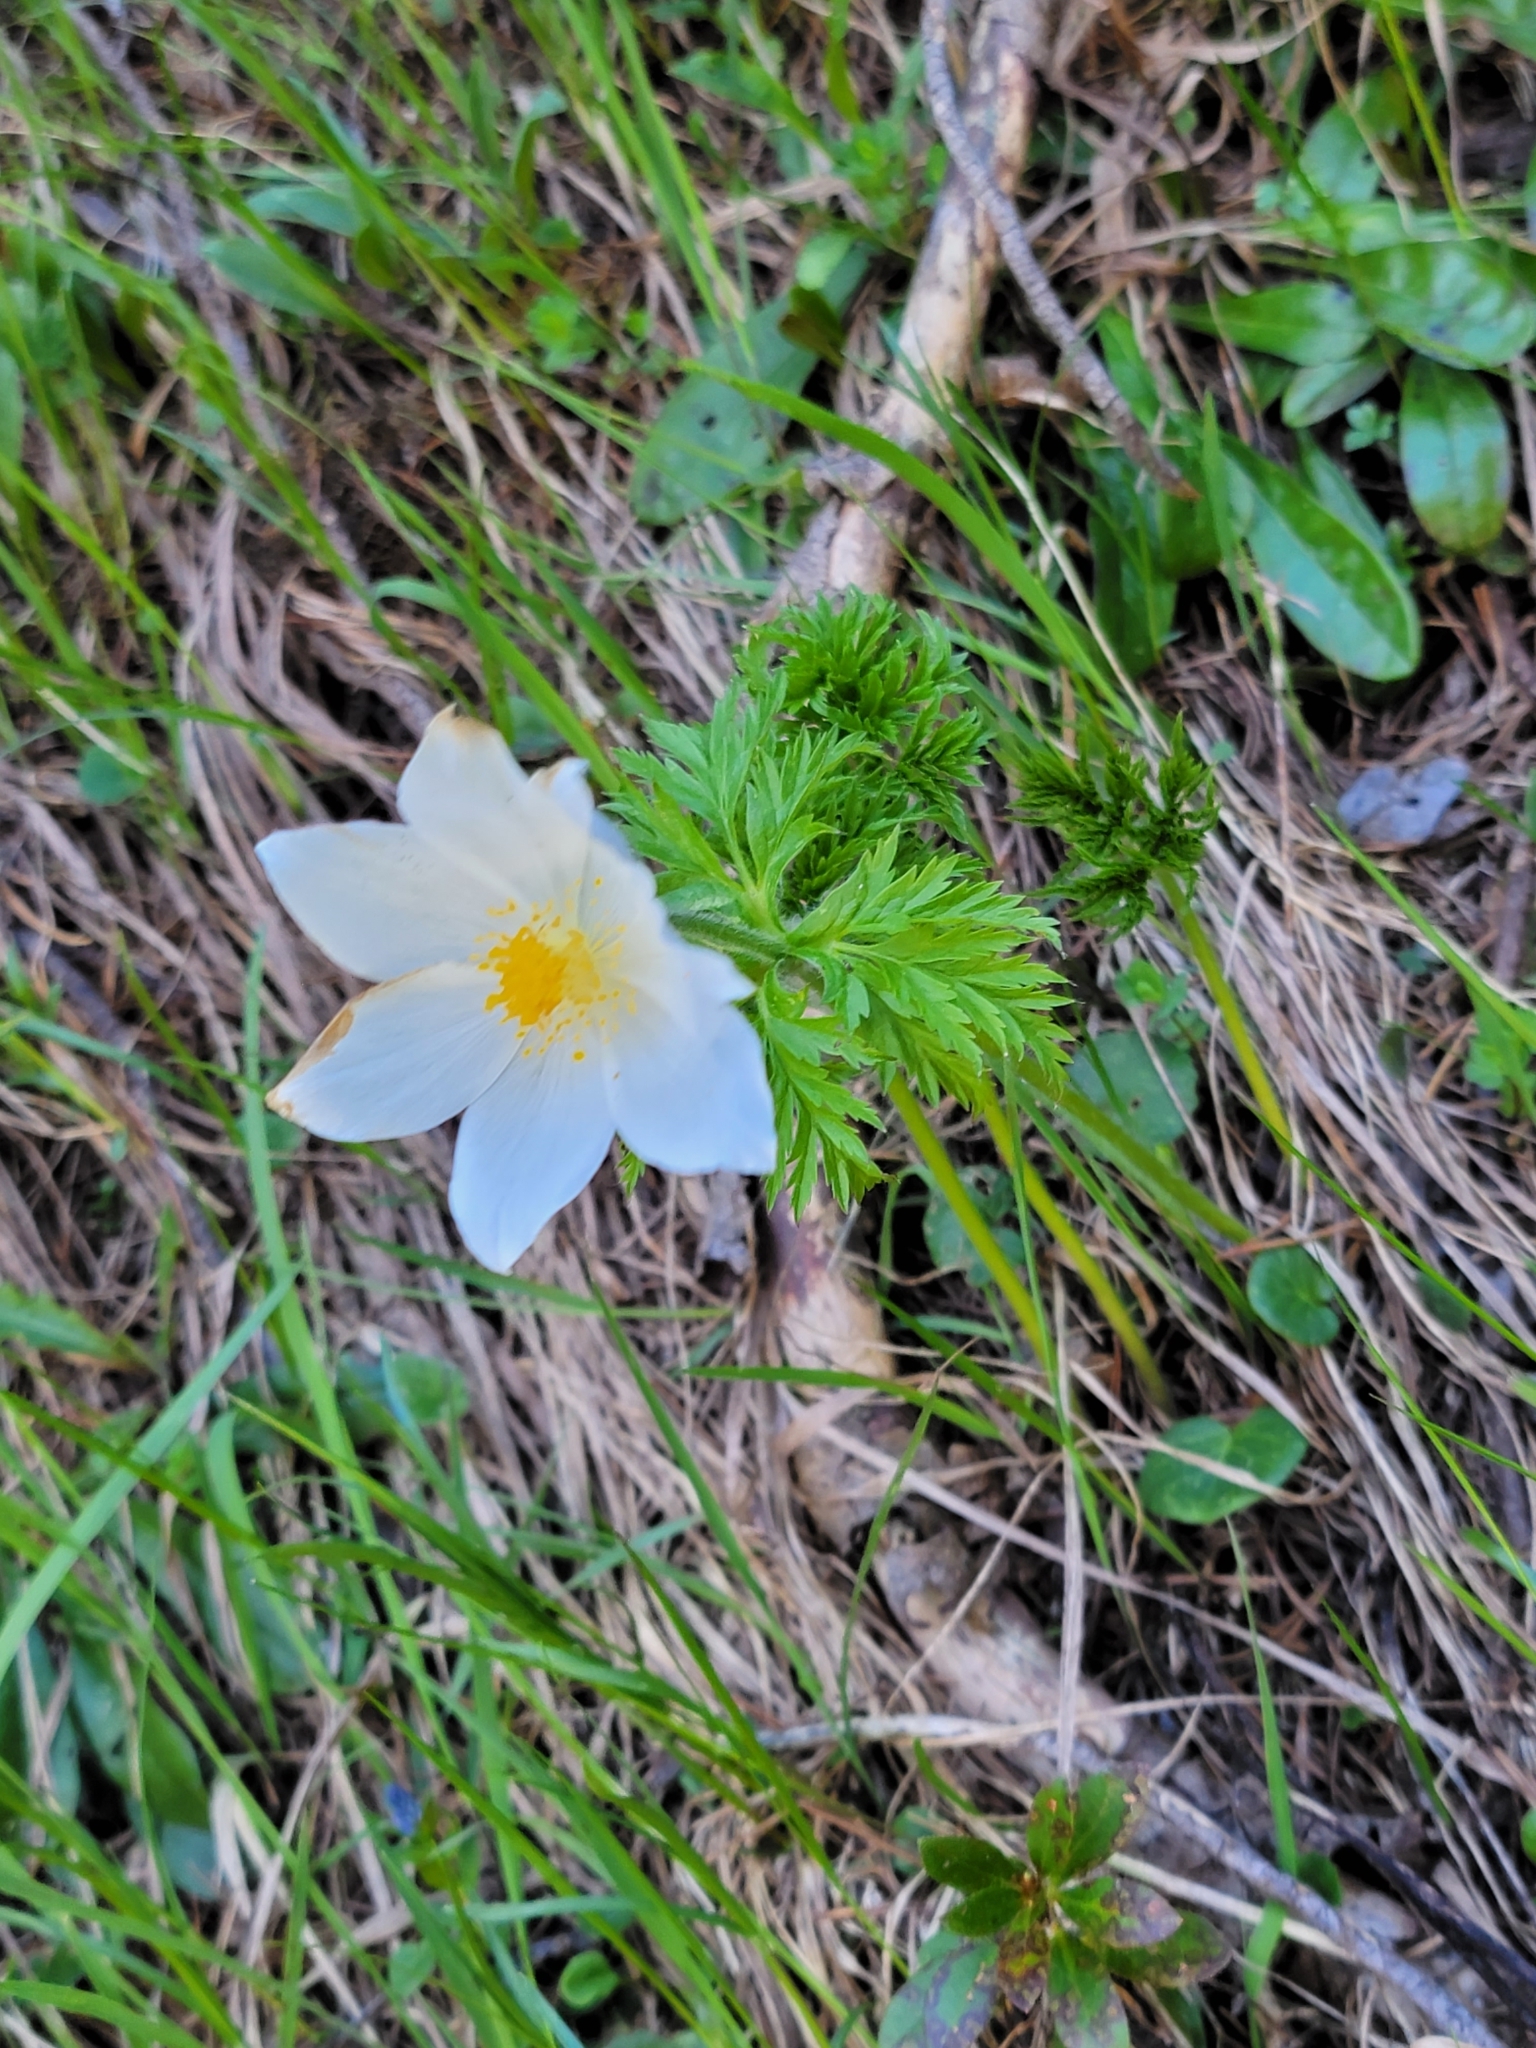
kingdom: Plantae
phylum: Tracheophyta
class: Magnoliopsida
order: Ranunculales
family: Ranunculaceae
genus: Pulsatilla
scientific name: Pulsatilla alpina
